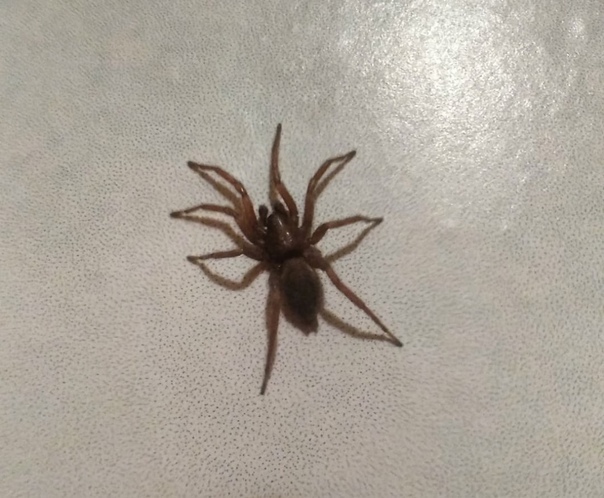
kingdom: Animalia
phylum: Arthropoda
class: Arachnida
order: Araneae
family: Gnaphosidae
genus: Scotophaeus
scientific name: Scotophaeus
